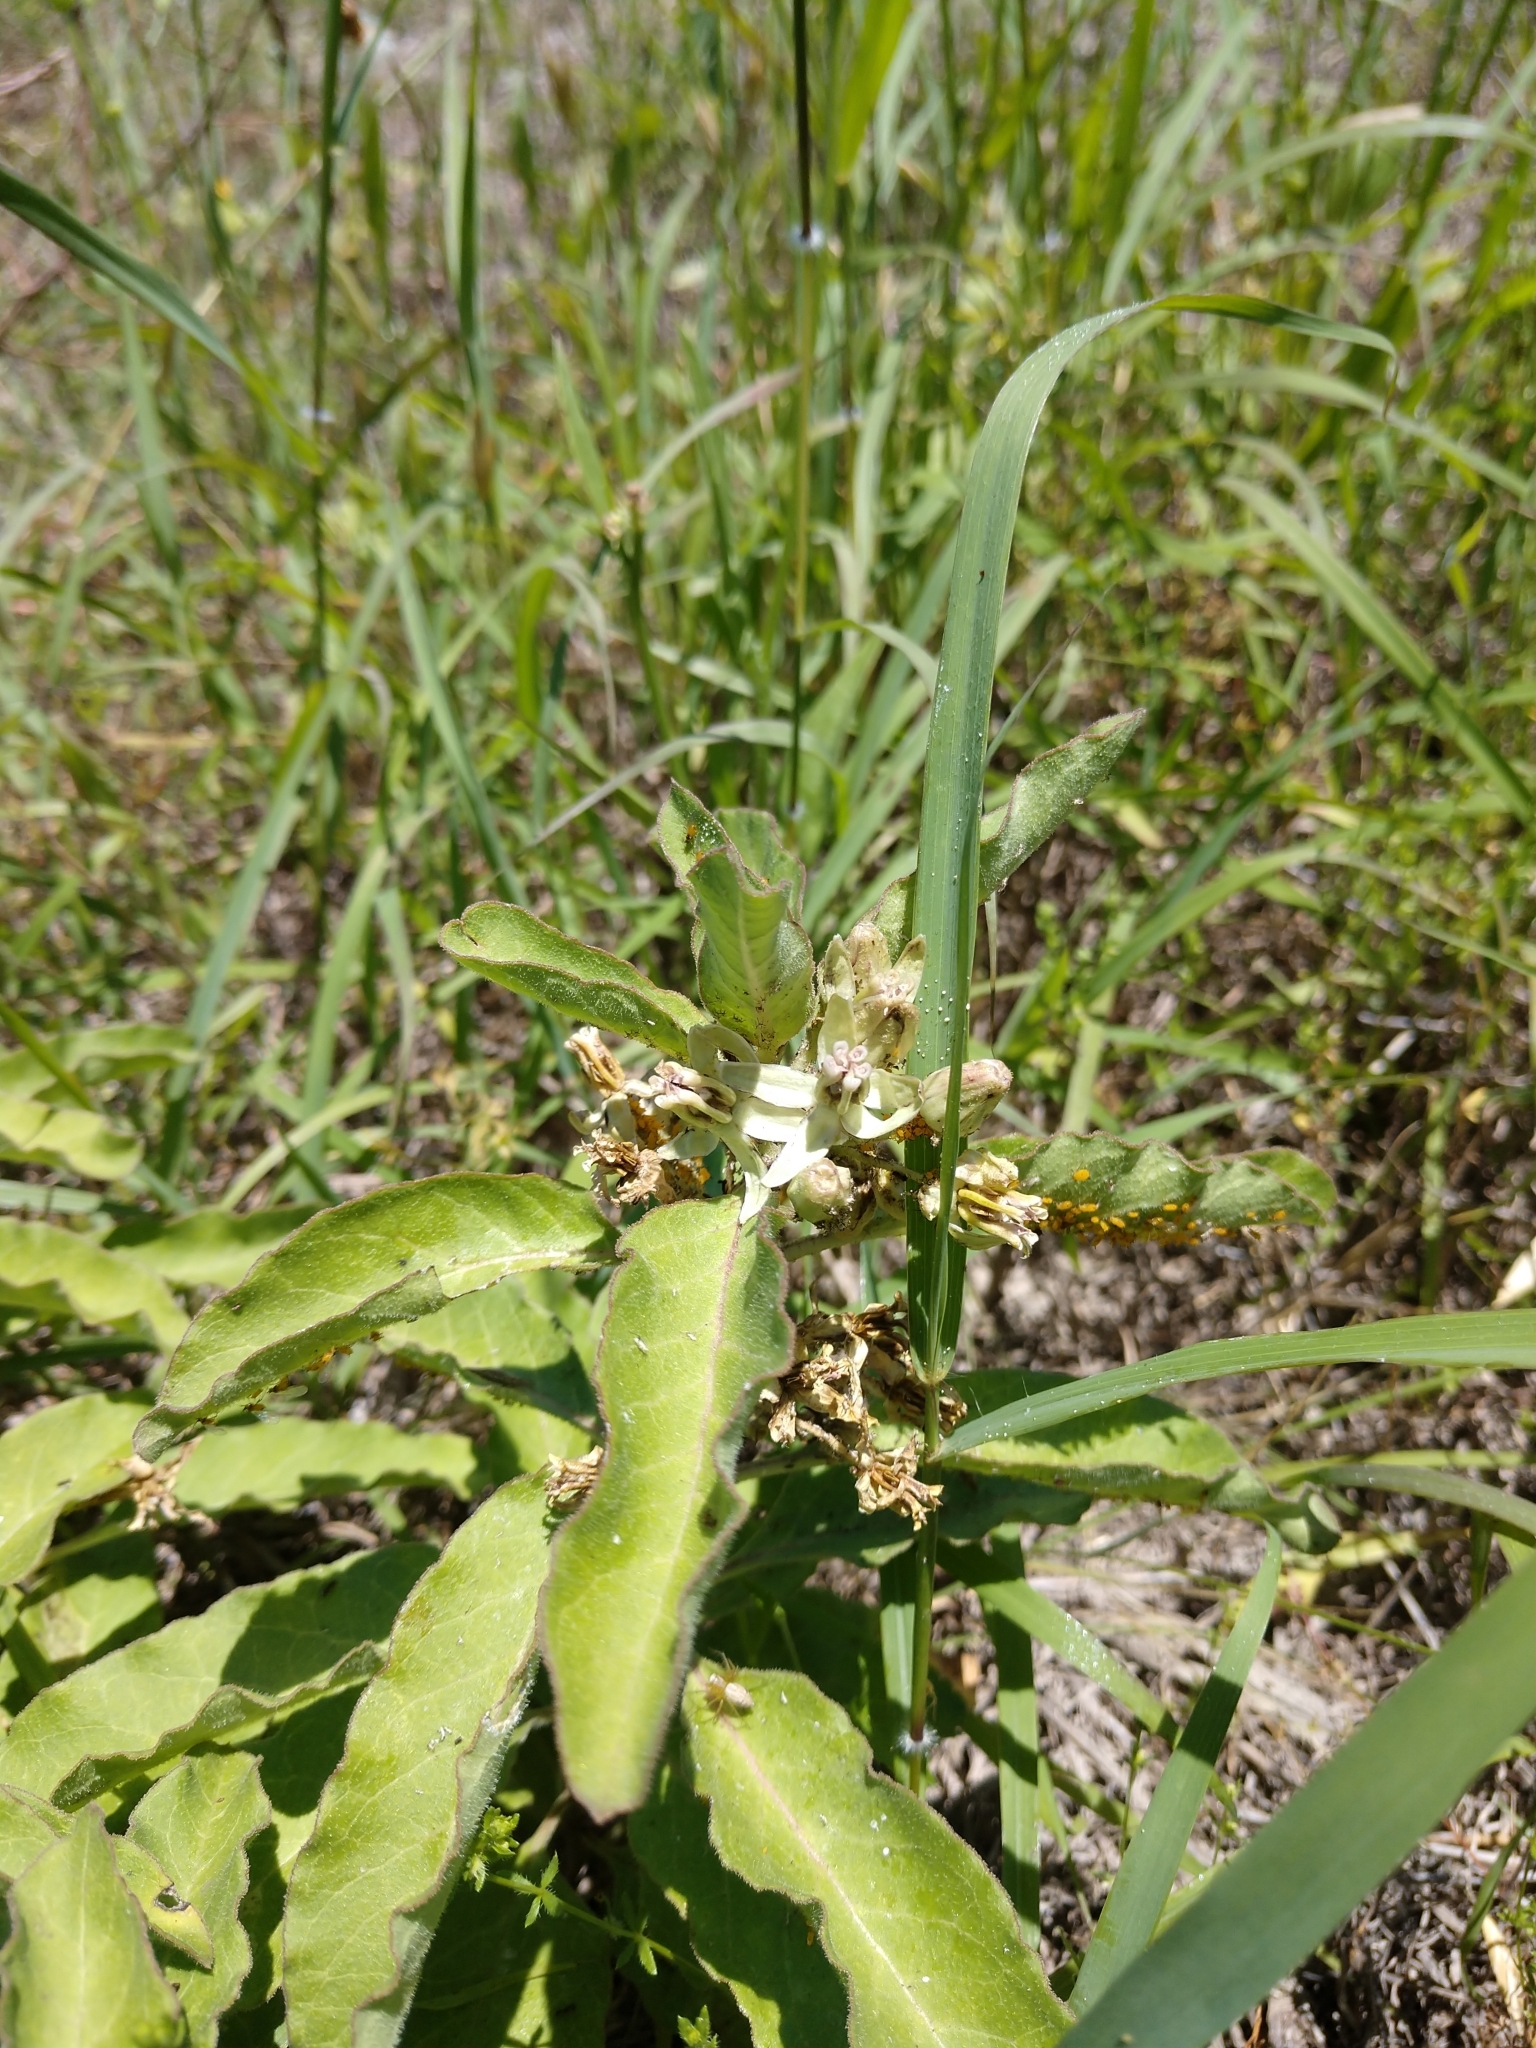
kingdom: Plantae
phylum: Tracheophyta
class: Magnoliopsida
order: Gentianales
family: Apocynaceae
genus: Asclepias
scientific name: Asclepias oenotheroides
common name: Zizotes milkweed
